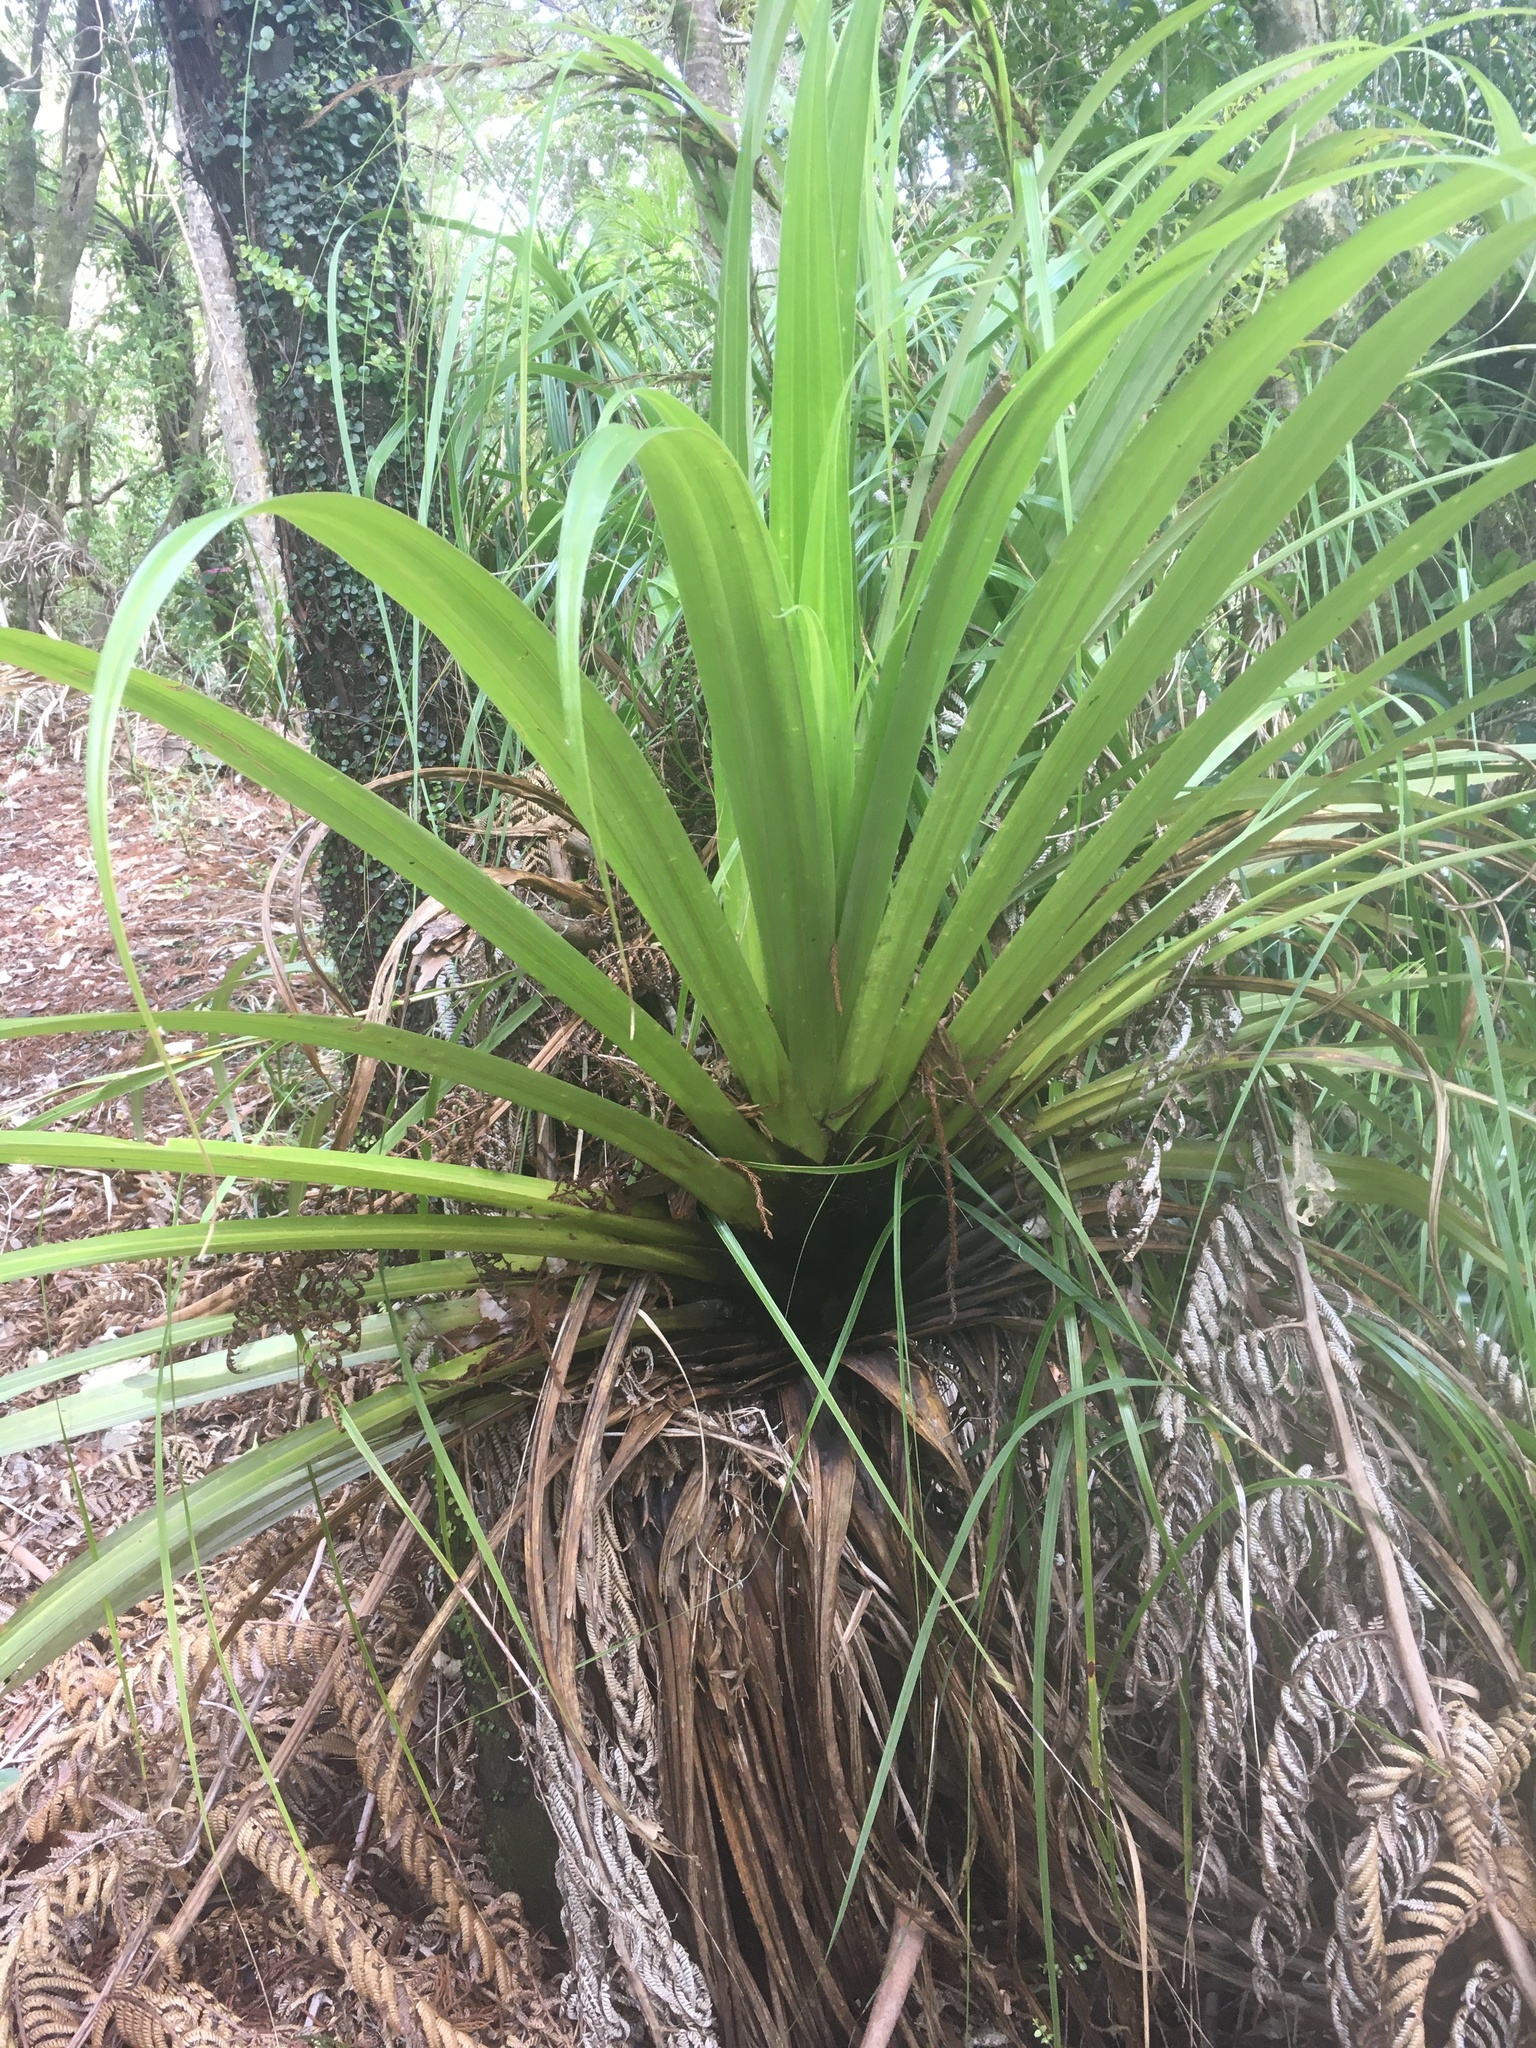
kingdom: Plantae
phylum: Tracheophyta
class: Liliopsida
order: Asparagales
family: Asteliaceae
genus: Astelia
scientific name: Astelia hastata
